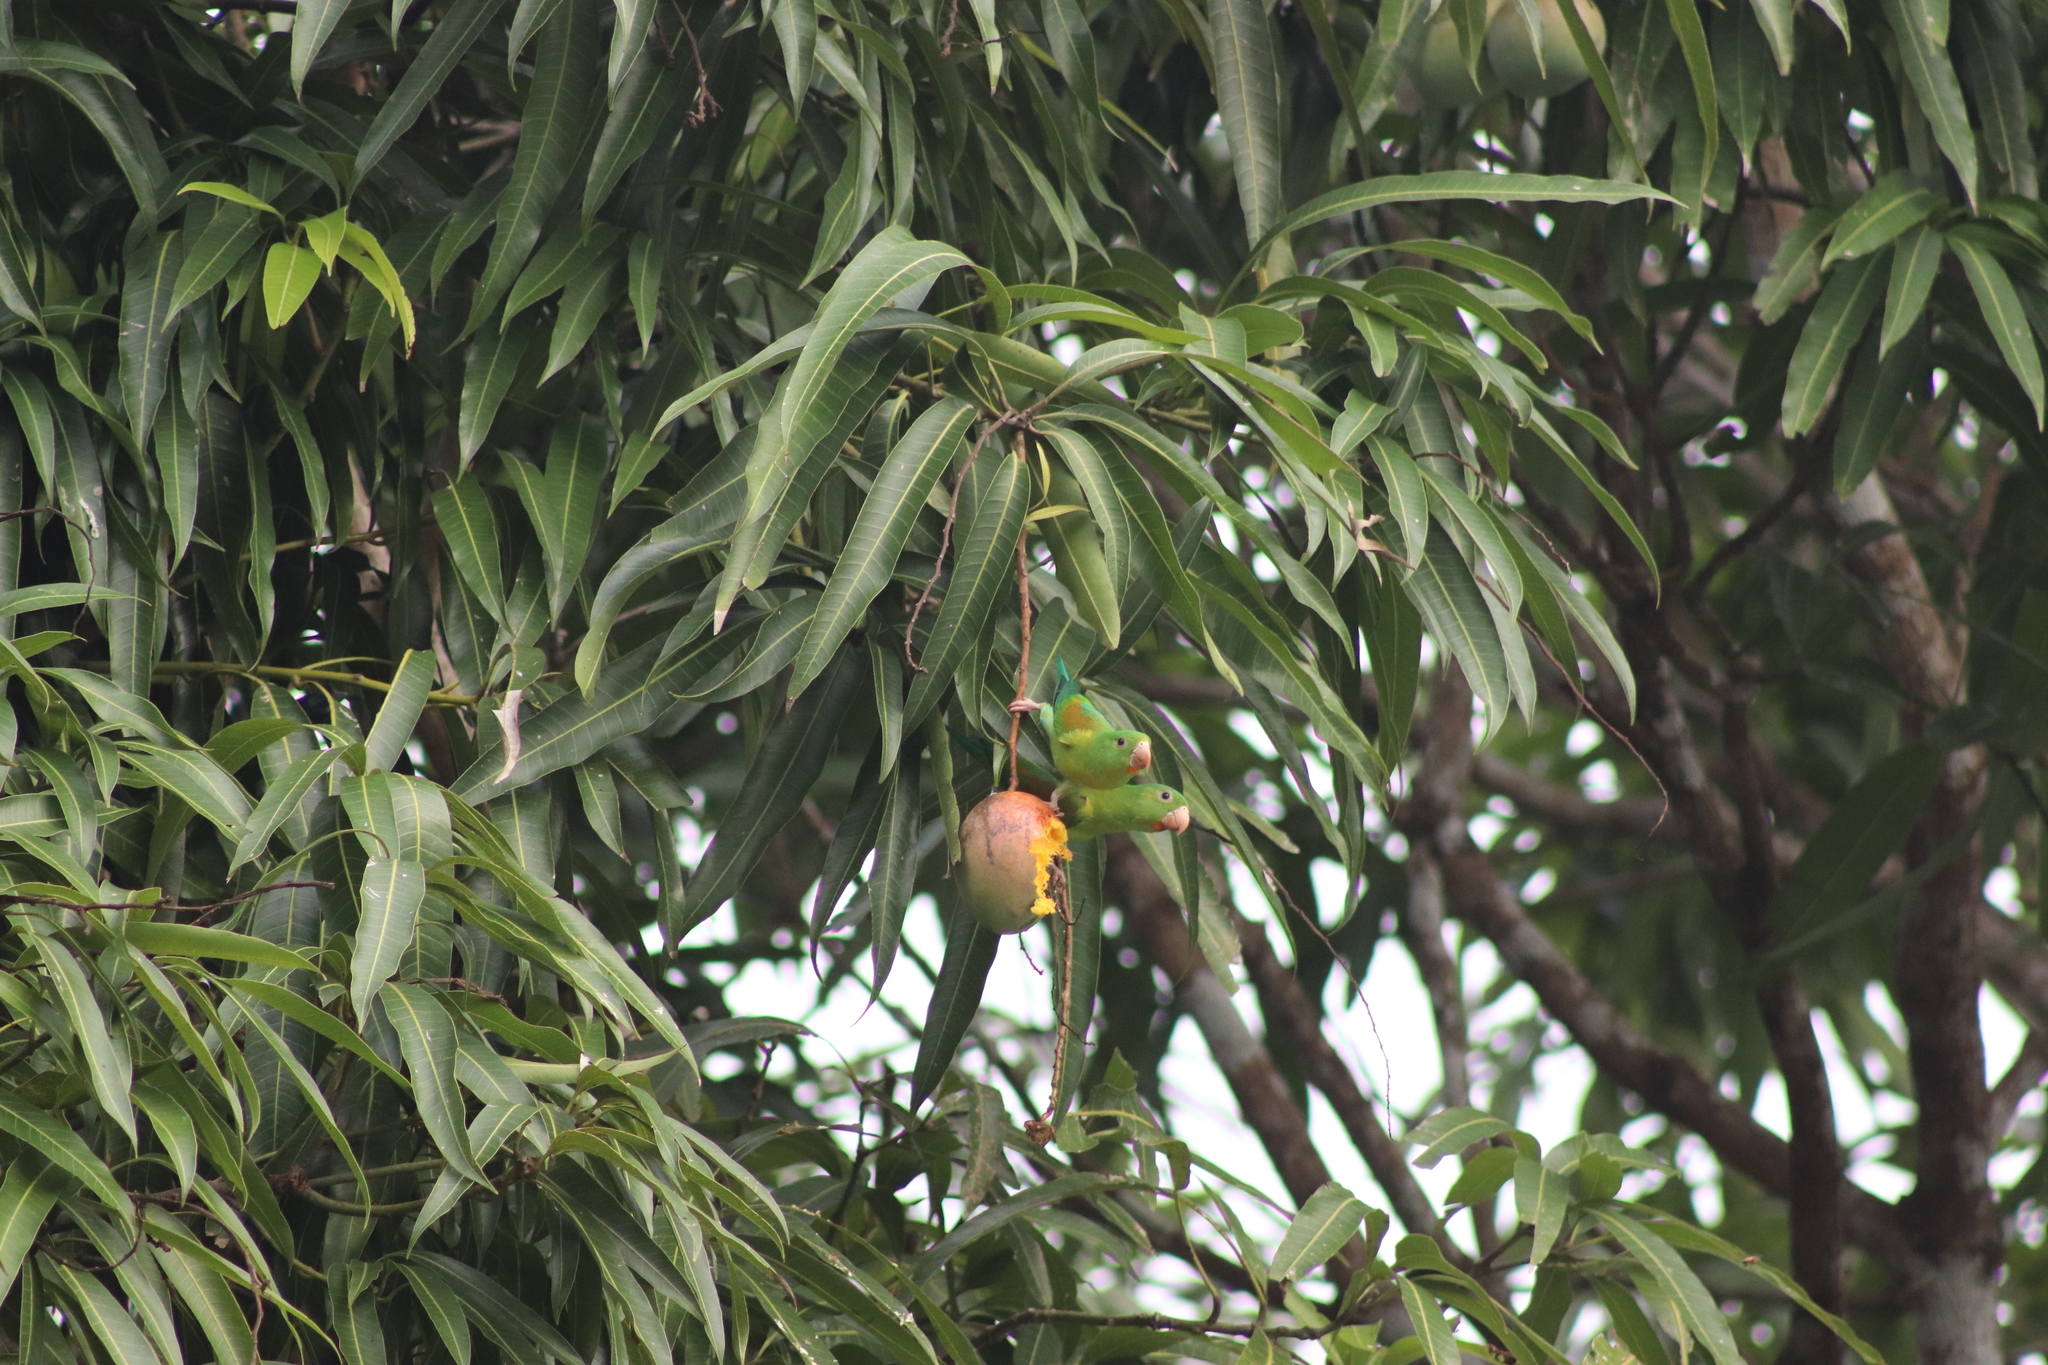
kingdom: Animalia
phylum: Chordata
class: Aves
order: Psittaciformes
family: Psittacidae
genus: Brotogeris
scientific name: Brotogeris jugularis
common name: Orange-chinned parakeet
